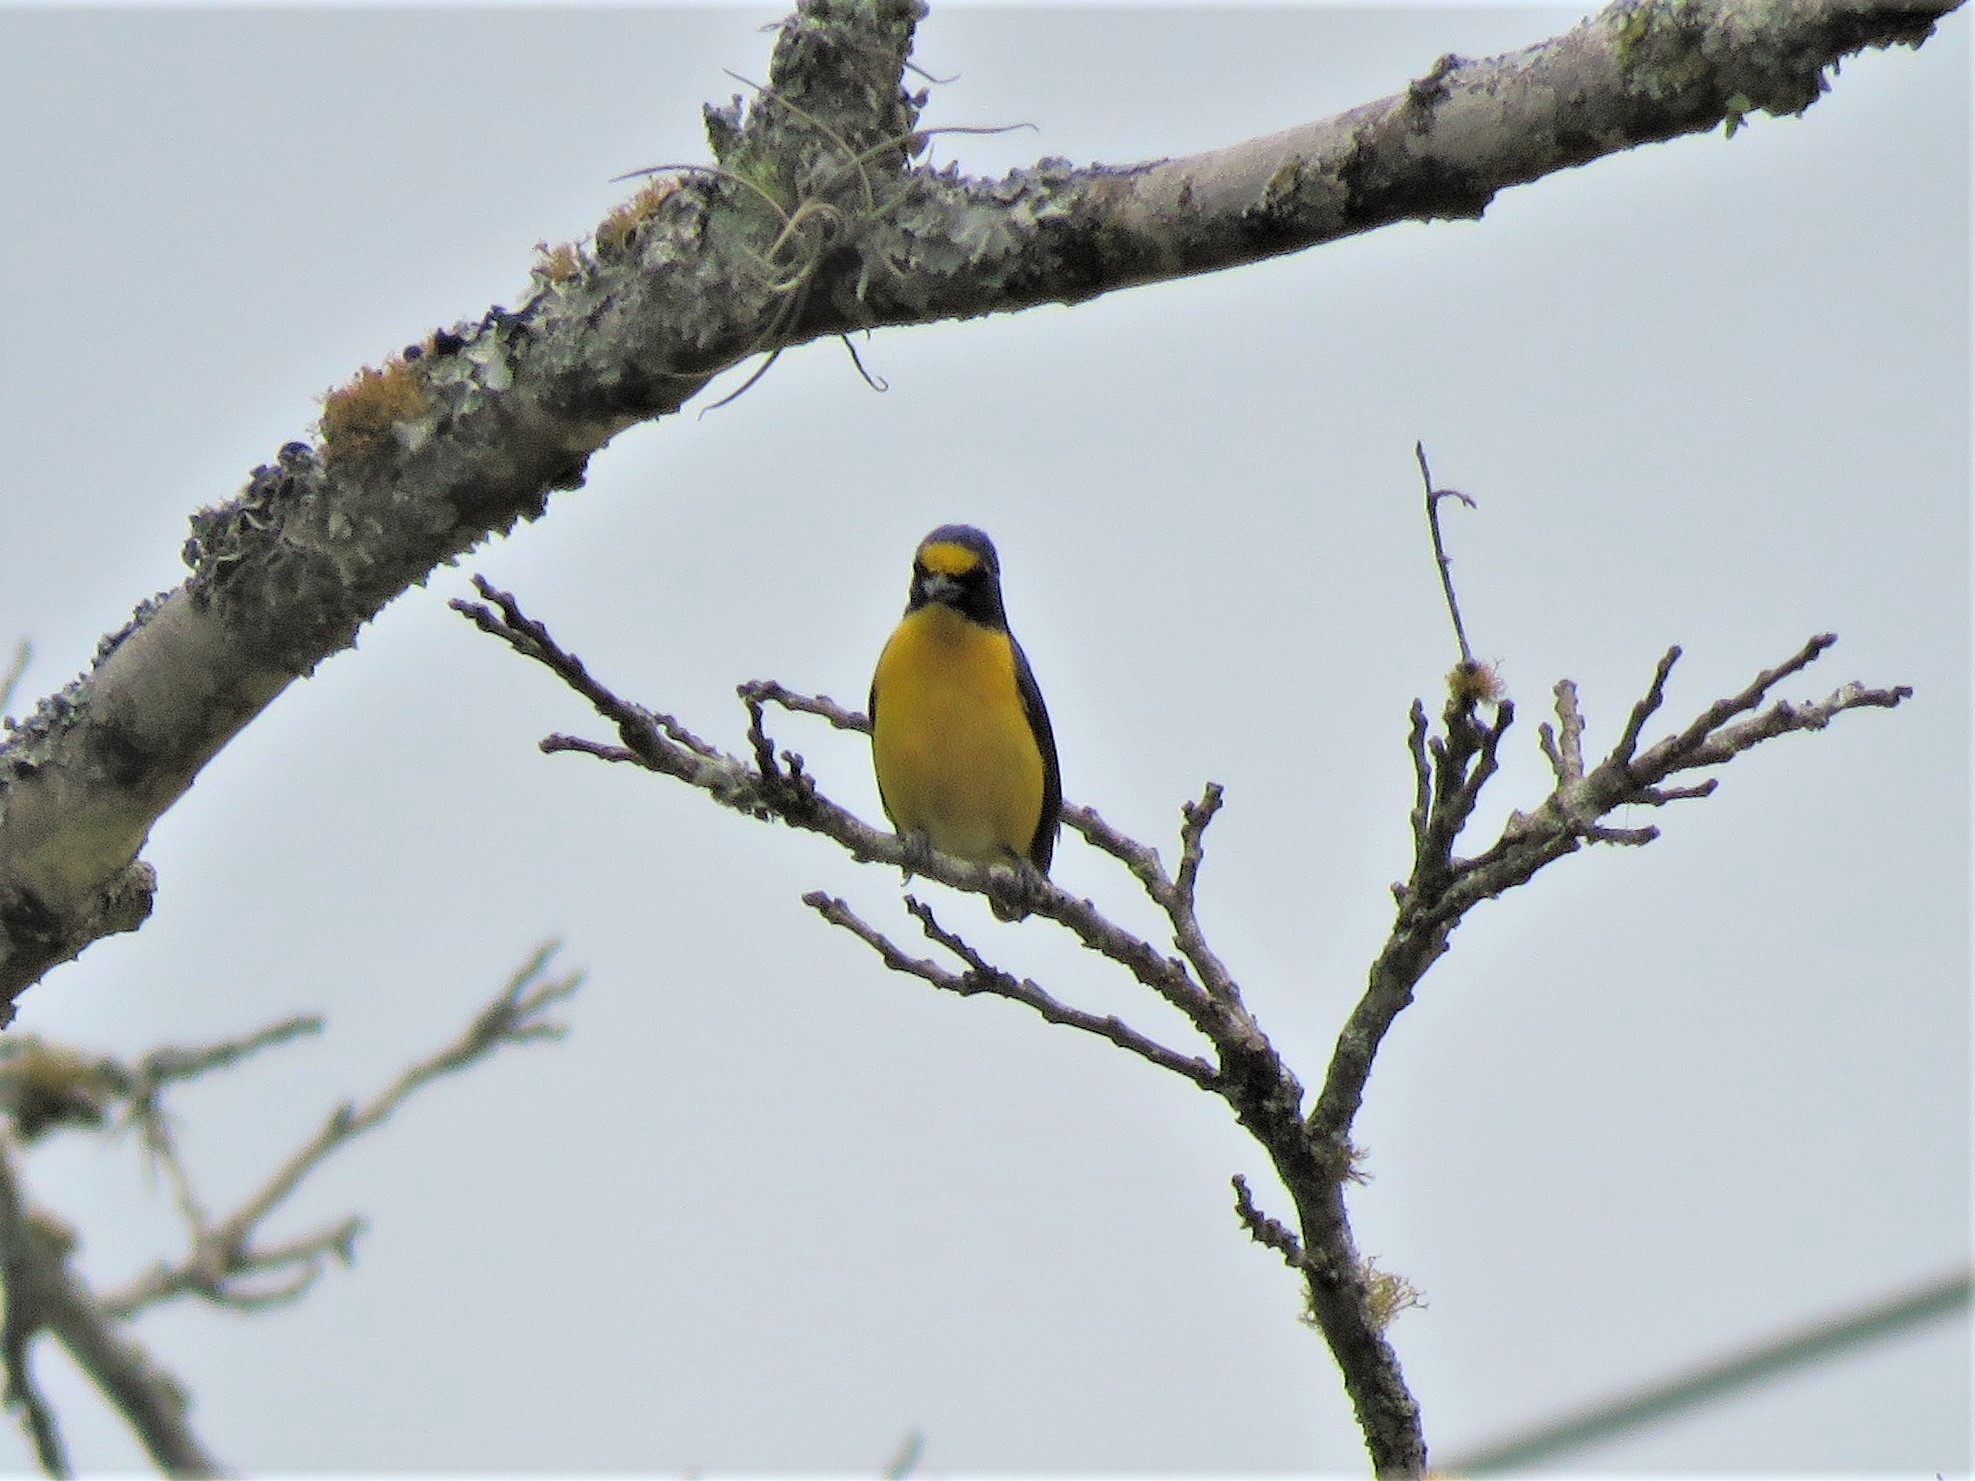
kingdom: Animalia
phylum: Chordata
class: Aves
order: Passeriformes
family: Fringillidae
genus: Euphonia
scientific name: Euphonia hirundinacea
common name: Yellow-throated euphonia
